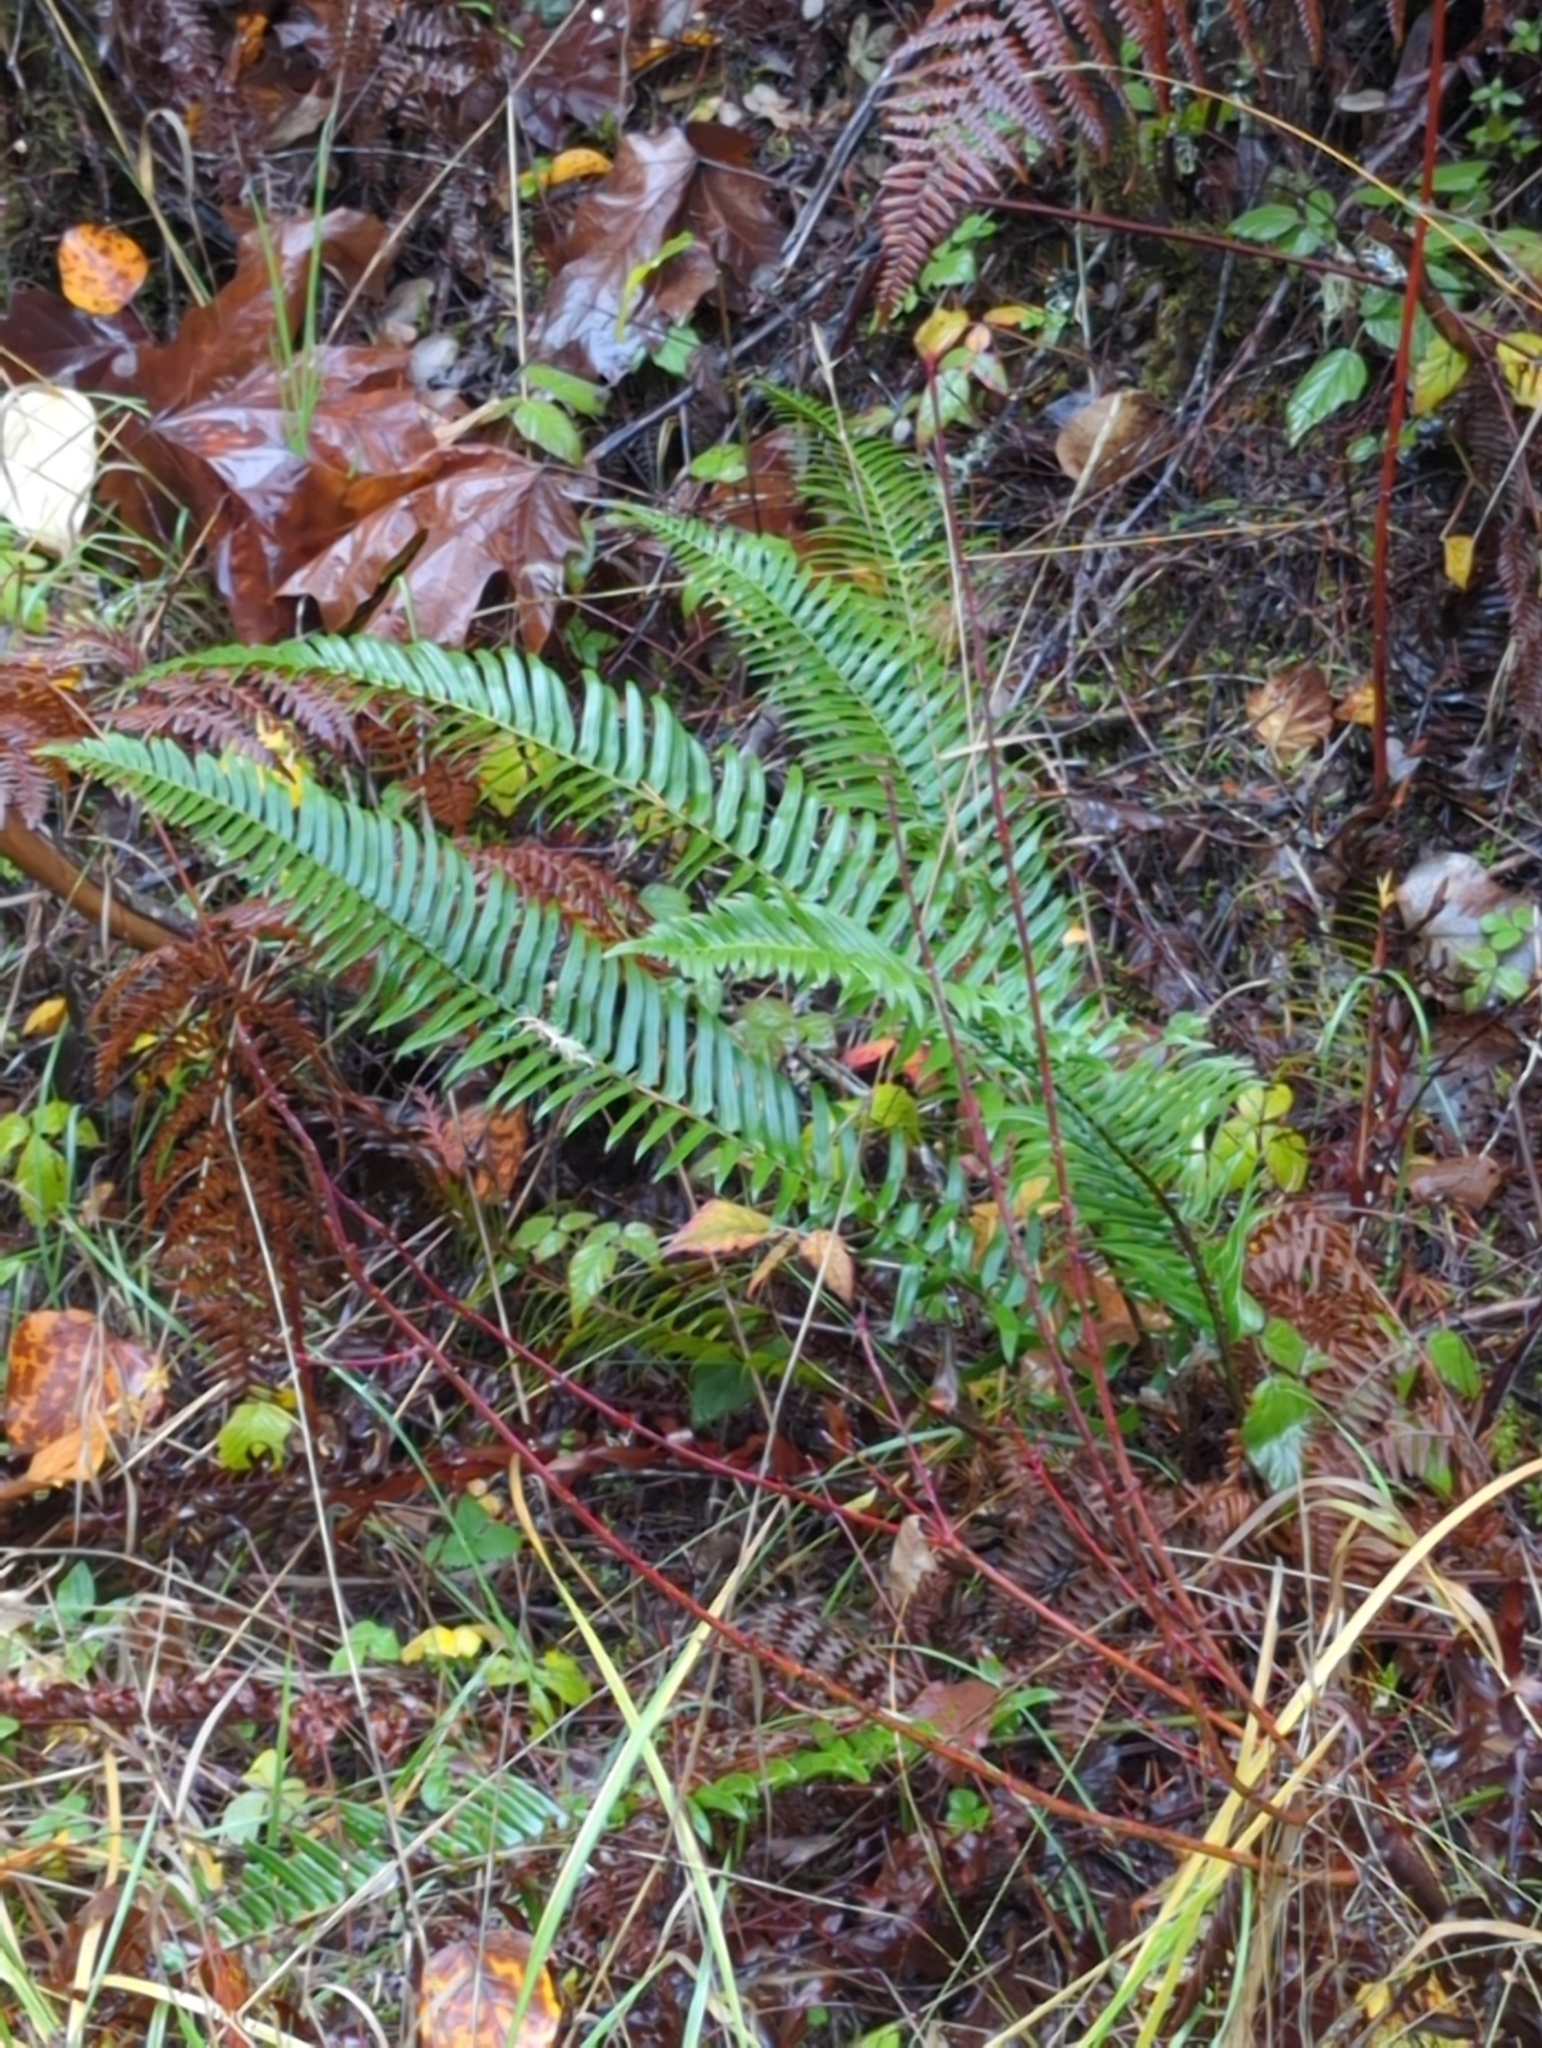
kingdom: Plantae
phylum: Tracheophyta
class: Polypodiopsida
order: Polypodiales
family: Dryopteridaceae
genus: Polystichum
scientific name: Polystichum munitum
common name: Western sword-fern
